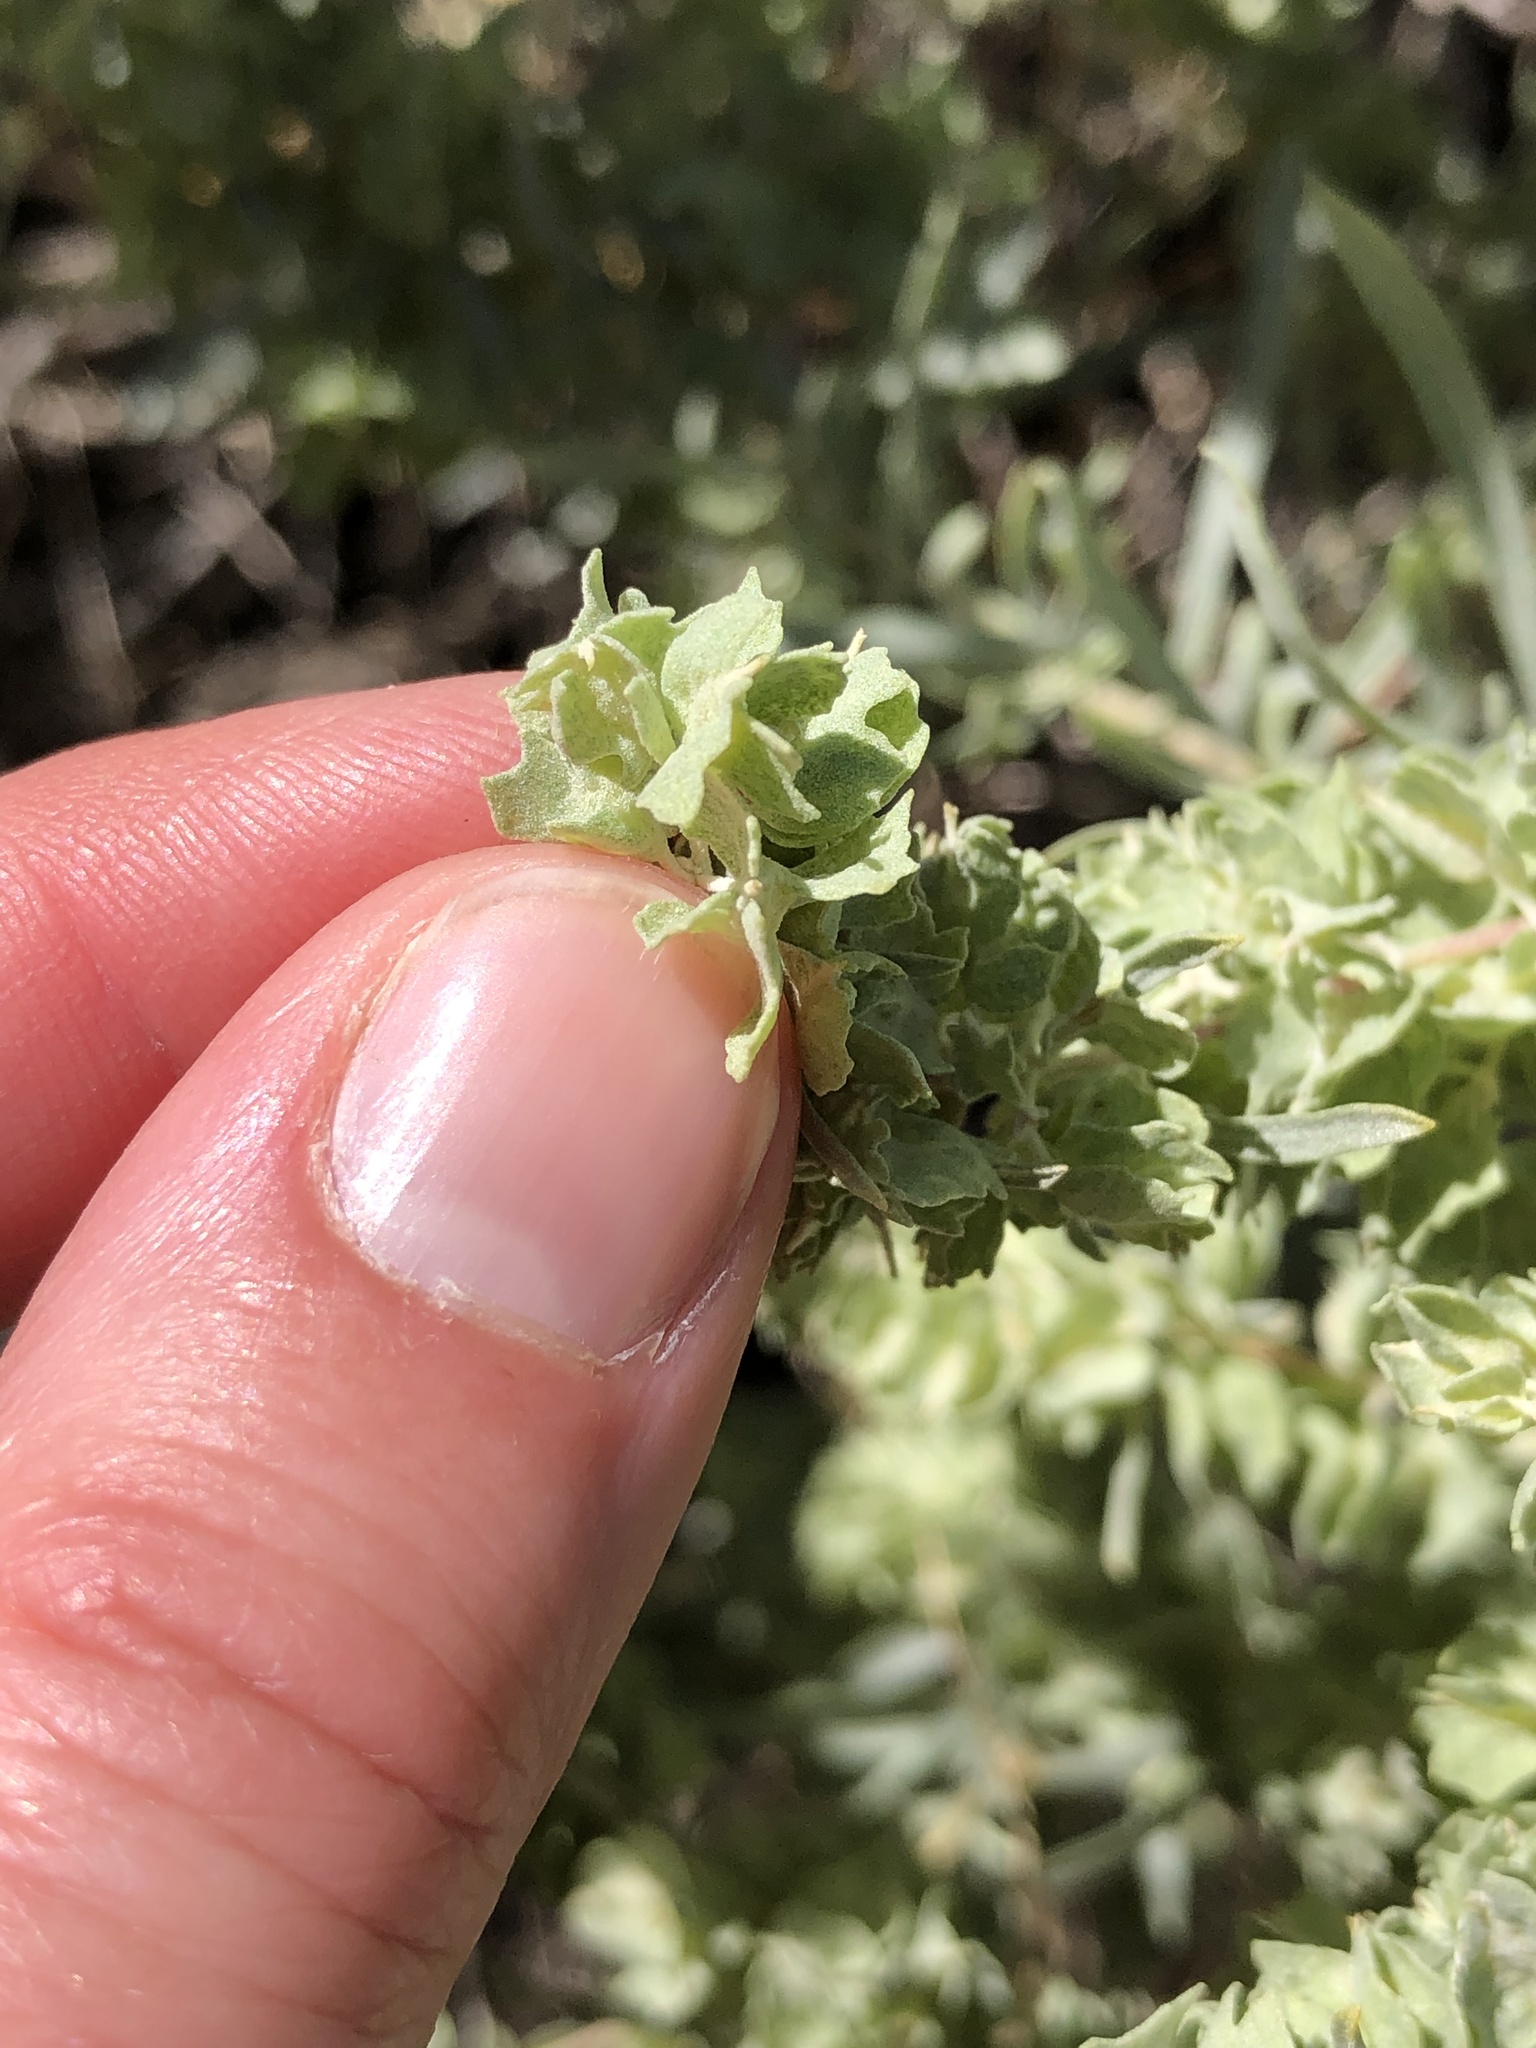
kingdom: Plantae
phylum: Tracheophyta
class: Magnoliopsida
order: Caryophyllales
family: Amaranthaceae
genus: Atriplex
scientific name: Atriplex canescens
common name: Four-wing saltbush
